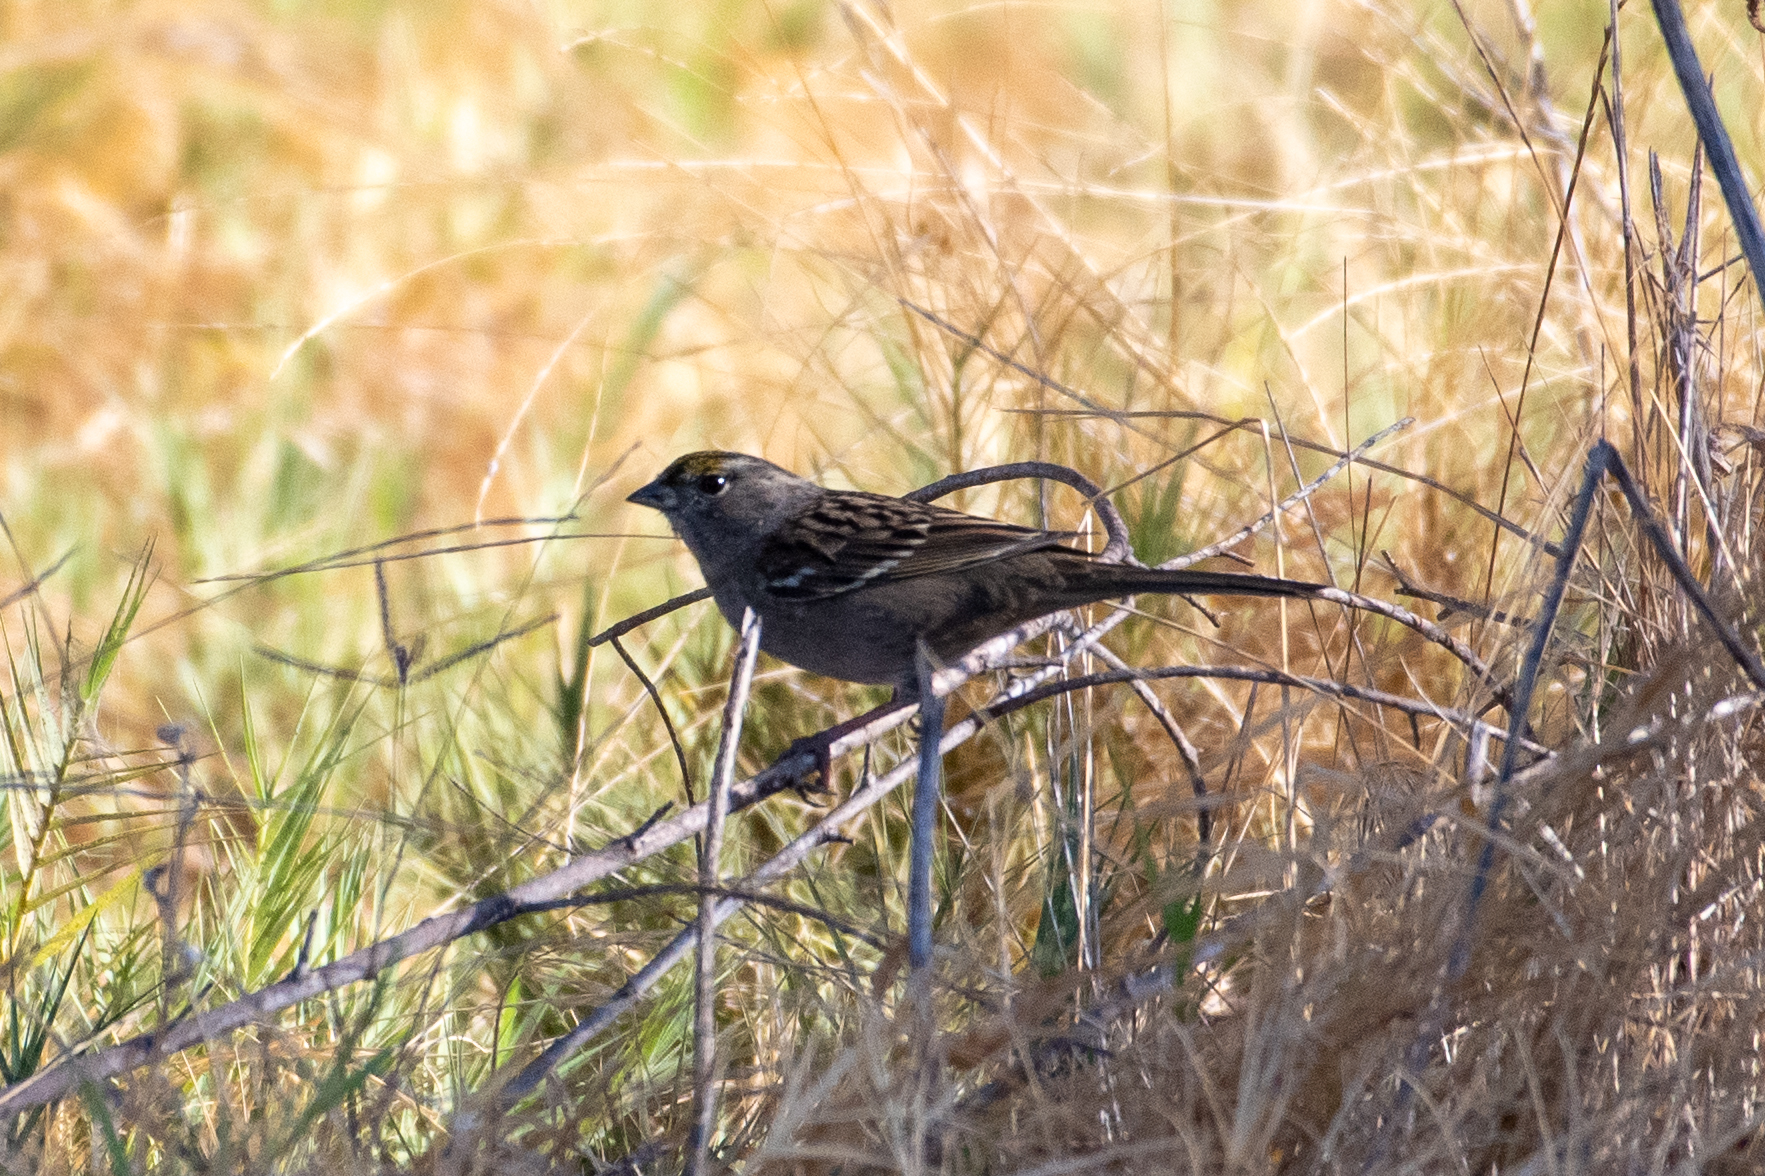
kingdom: Animalia
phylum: Chordata
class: Aves
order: Passeriformes
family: Passerellidae
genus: Zonotrichia
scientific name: Zonotrichia atricapilla
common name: Golden-crowned sparrow
